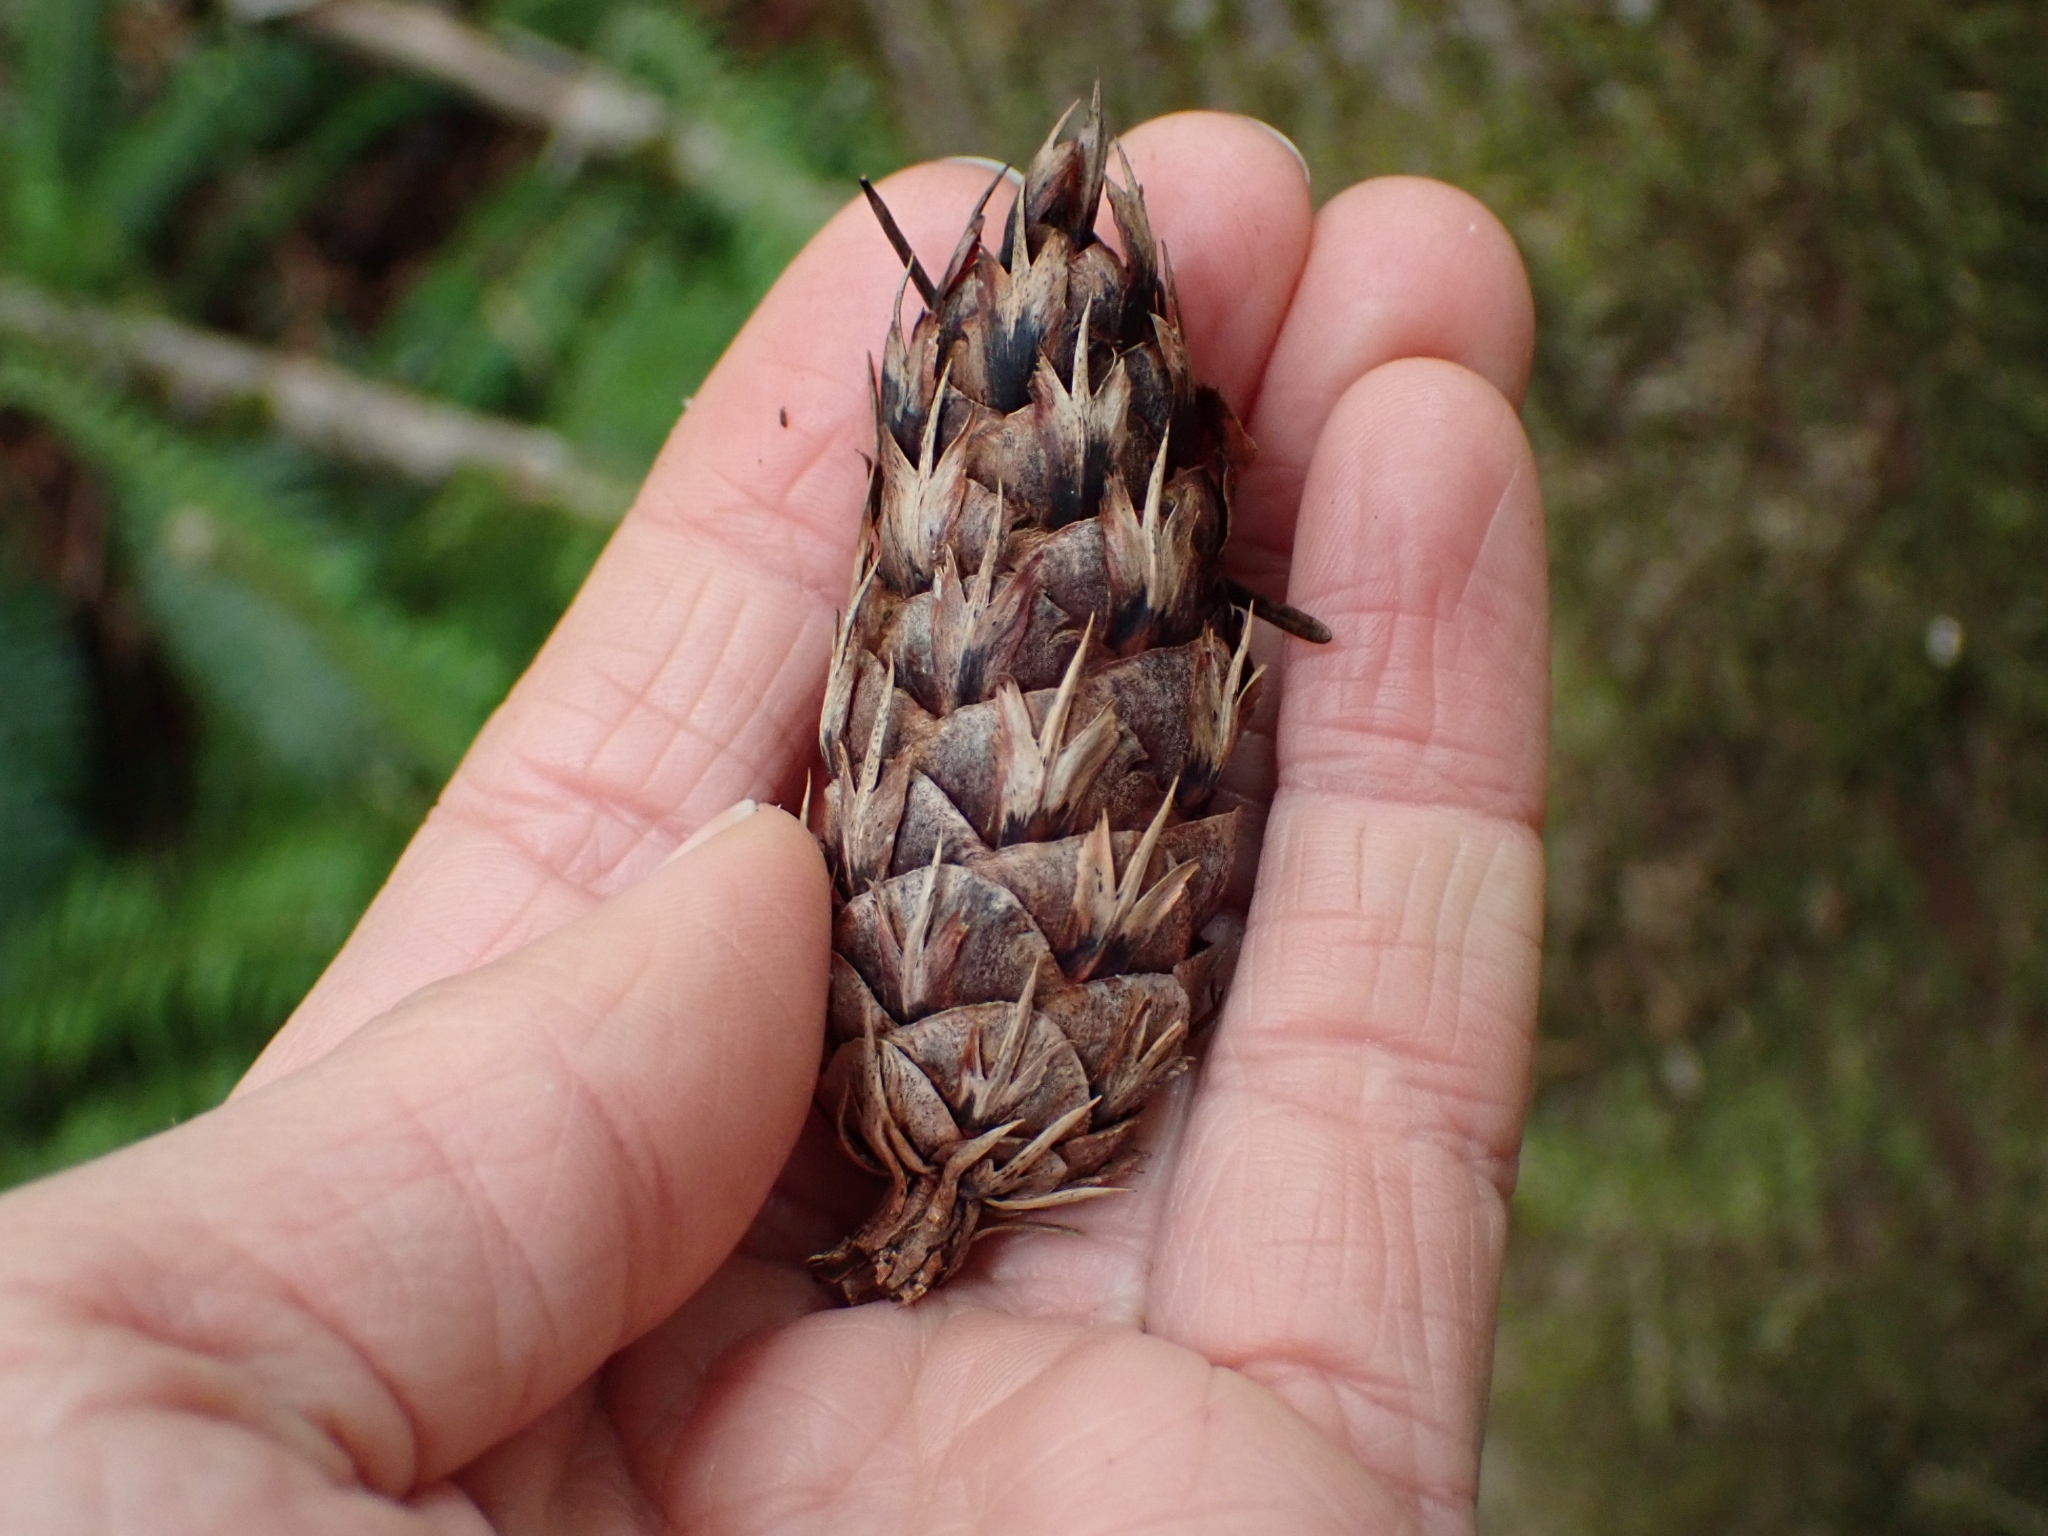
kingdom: Plantae
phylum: Tracheophyta
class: Pinopsida
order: Pinales
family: Pinaceae
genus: Pseudotsuga
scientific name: Pseudotsuga menziesii
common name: Douglas fir
